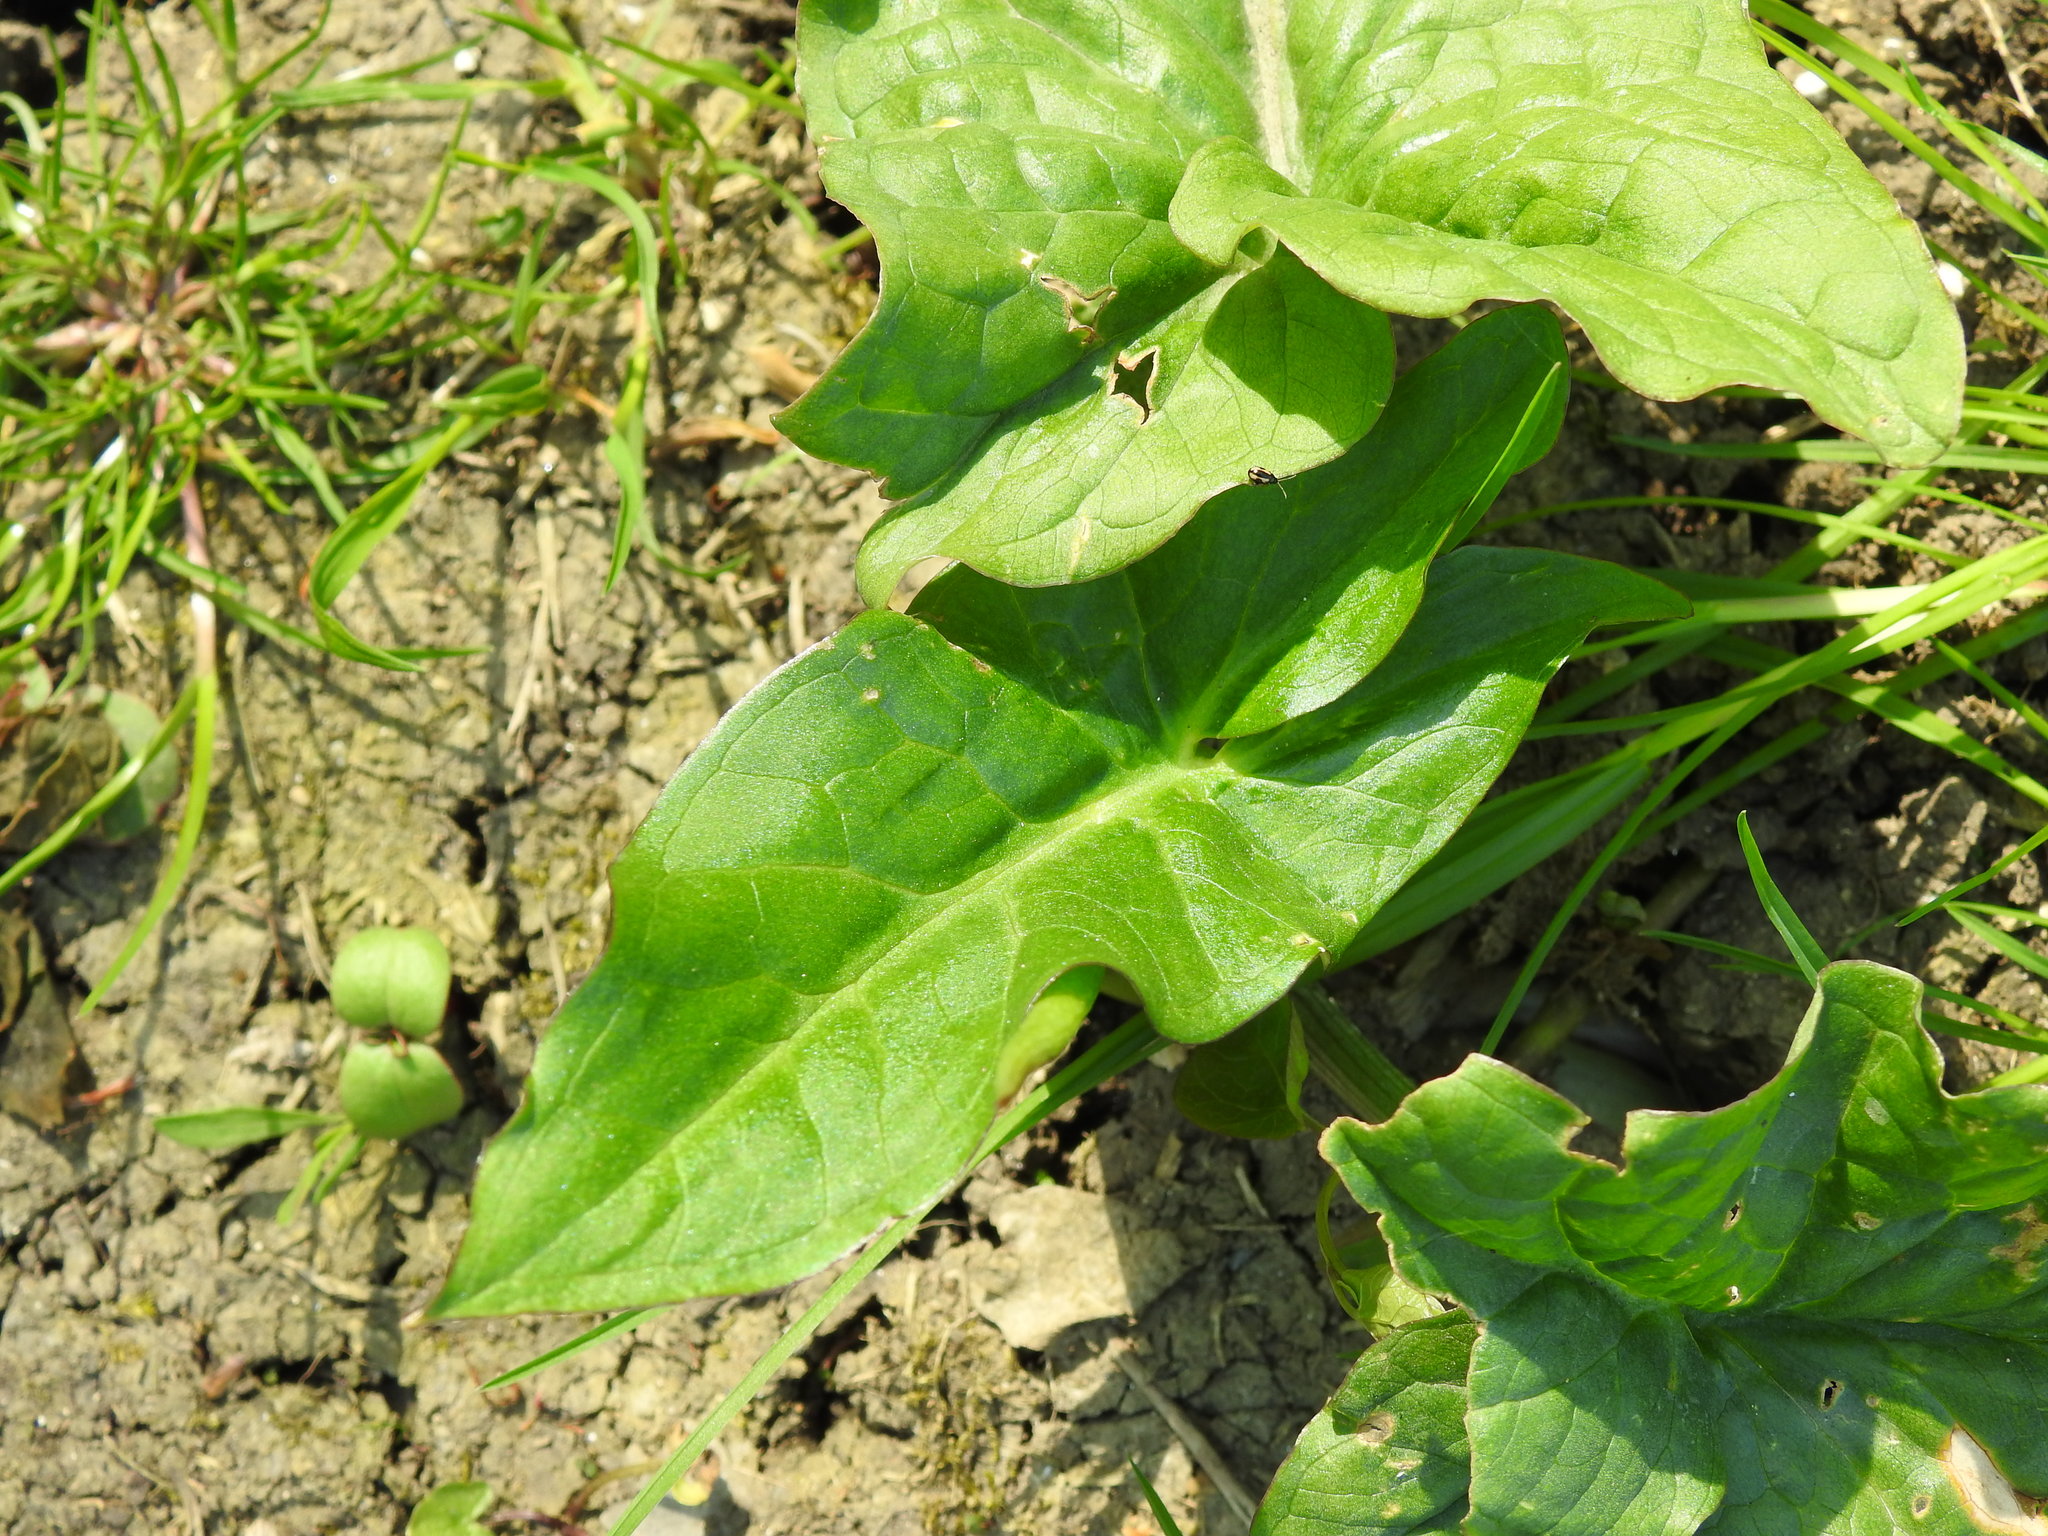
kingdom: Plantae
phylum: Tracheophyta
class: Liliopsida
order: Alismatales
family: Araceae
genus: Arum
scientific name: Arum maculatum
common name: Lords-and-ladies
